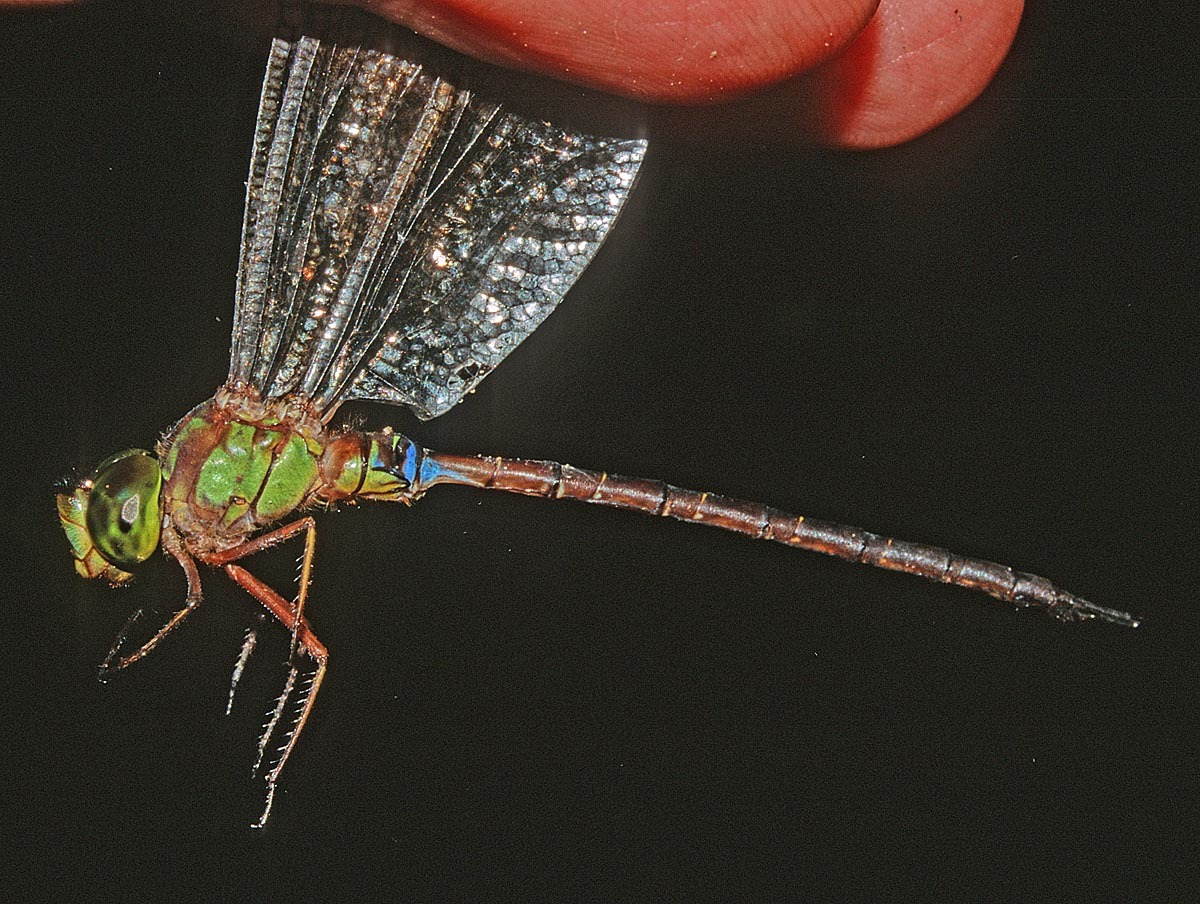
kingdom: Animalia
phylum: Arthropoda
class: Insecta
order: Odonata
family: Aeshnidae
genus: Gynacantha
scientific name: Gynacantha klagesi
